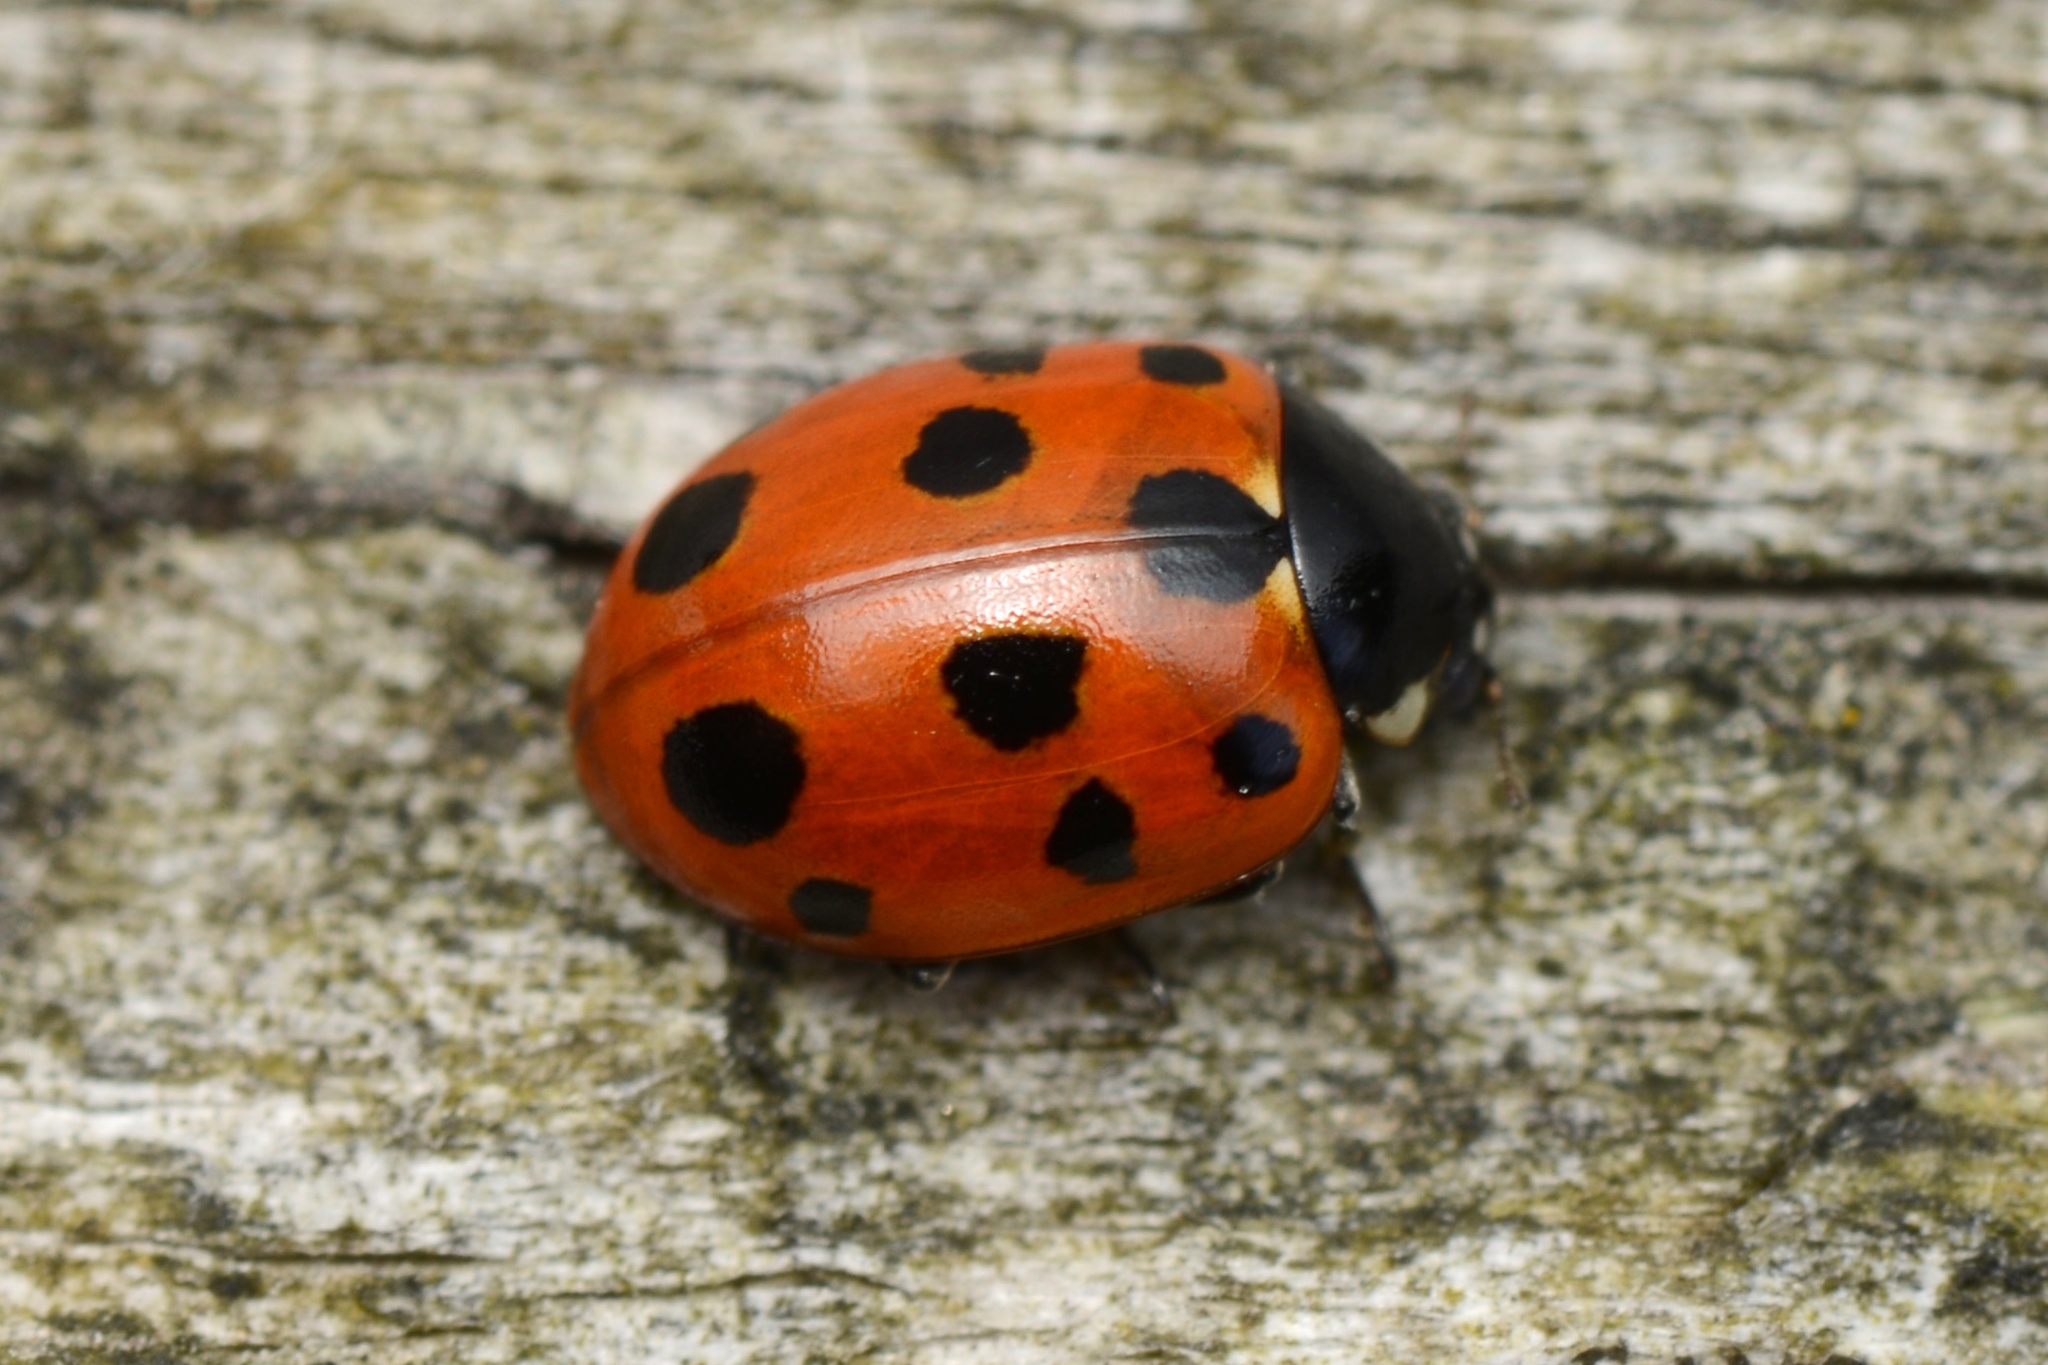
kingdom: Animalia
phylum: Arthropoda
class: Insecta
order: Coleoptera
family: Coccinellidae
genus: Coccinella
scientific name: Coccinella undecimpunctata
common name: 11-spot ladybird
